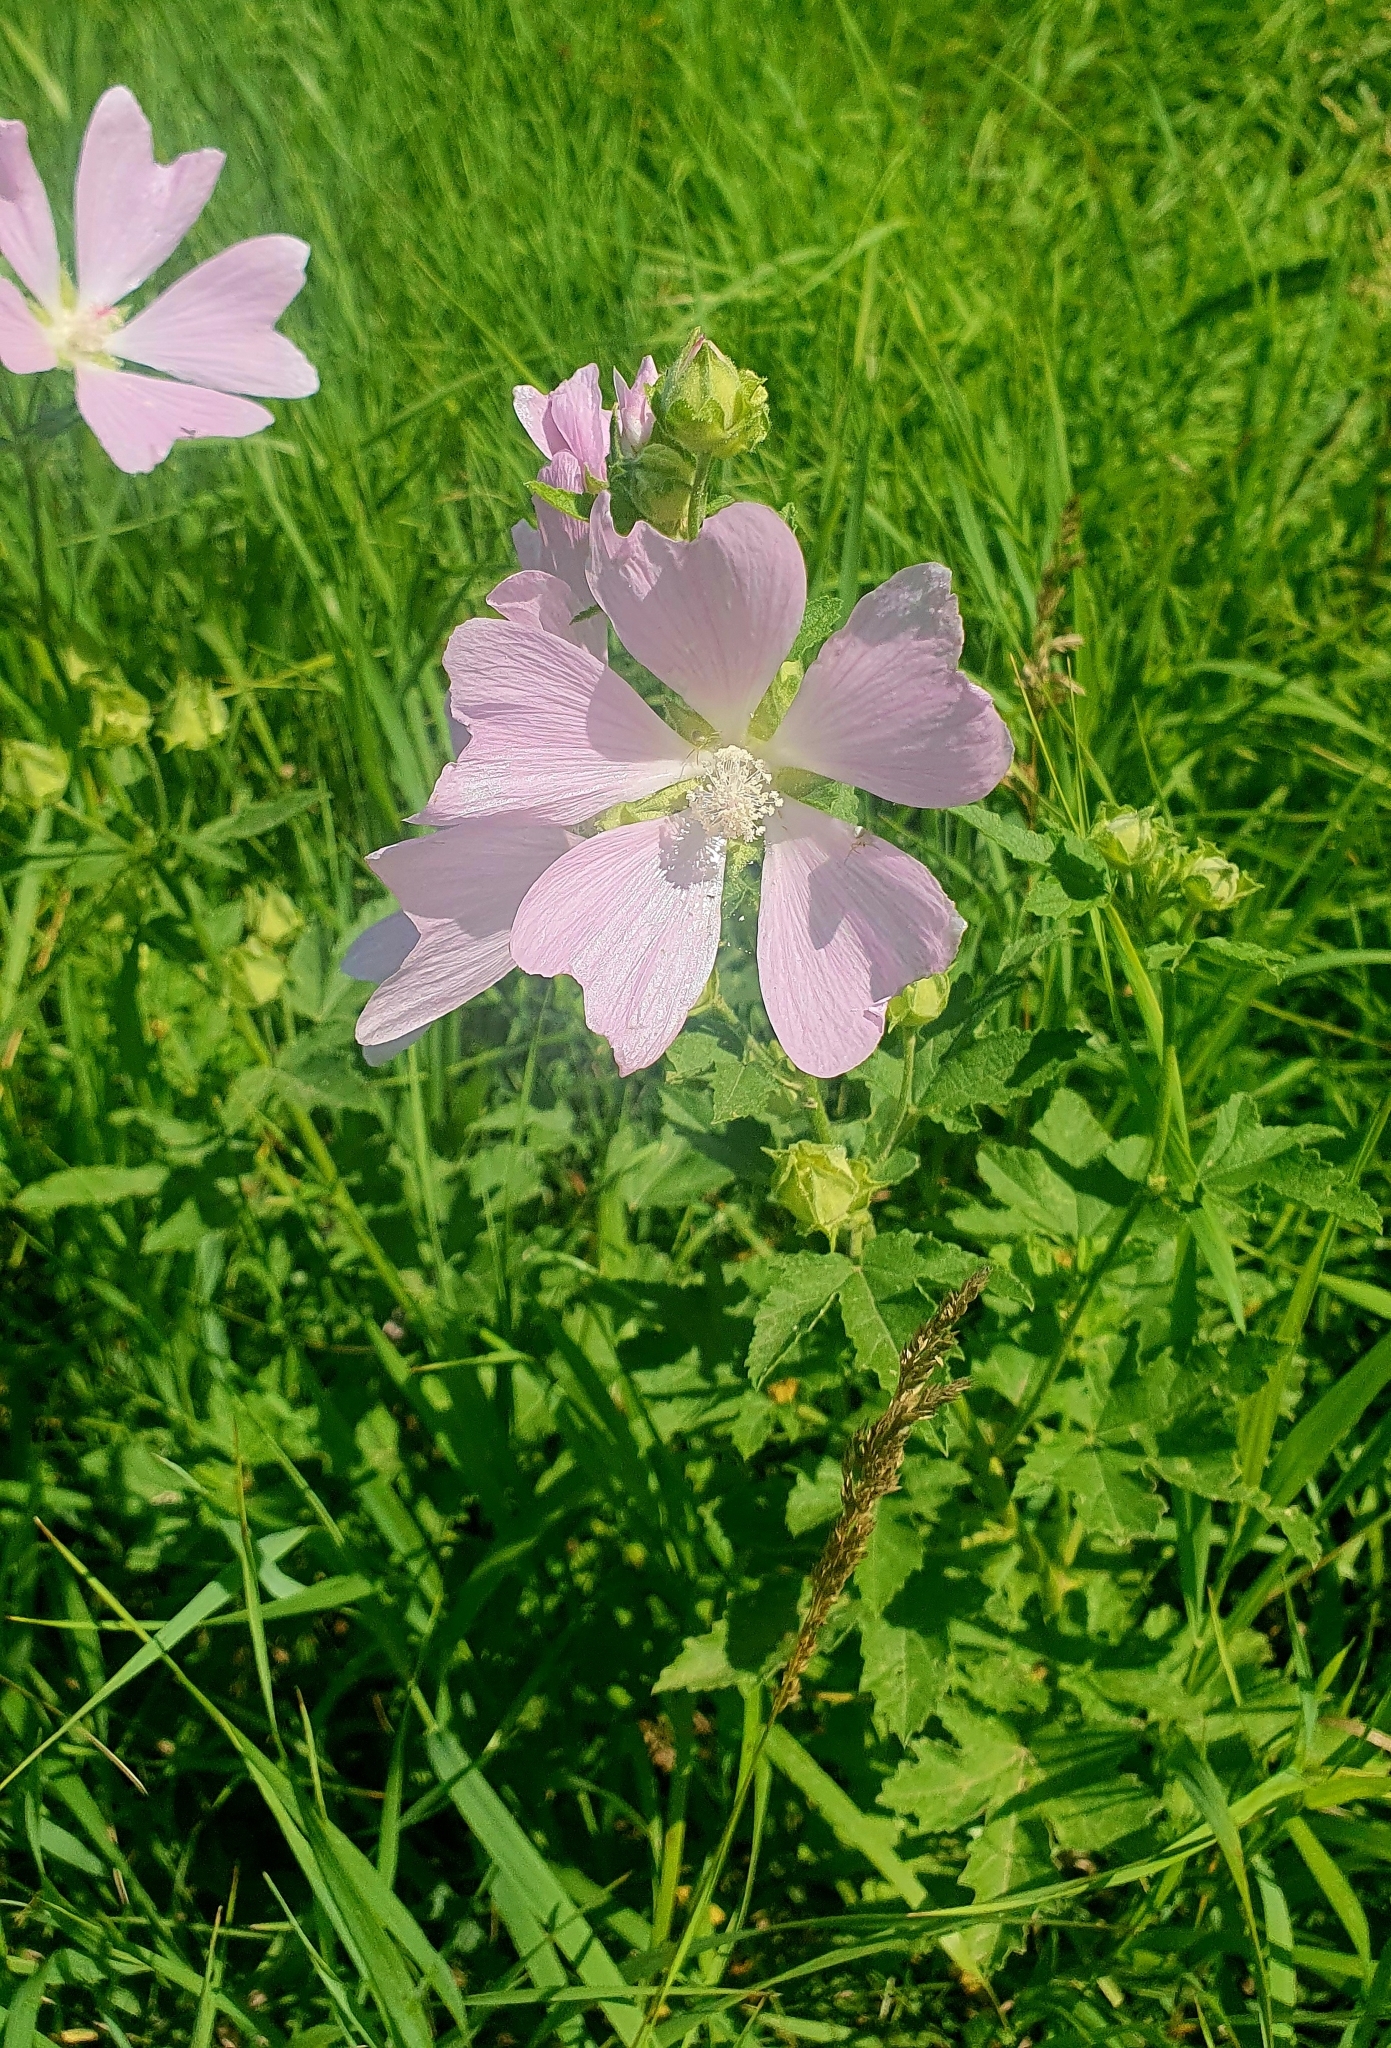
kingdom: Plantae
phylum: Tracheophyta
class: Magnoliopsida
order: Malvales
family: Malvaceae
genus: Malva
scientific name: Malva thuringiaca
